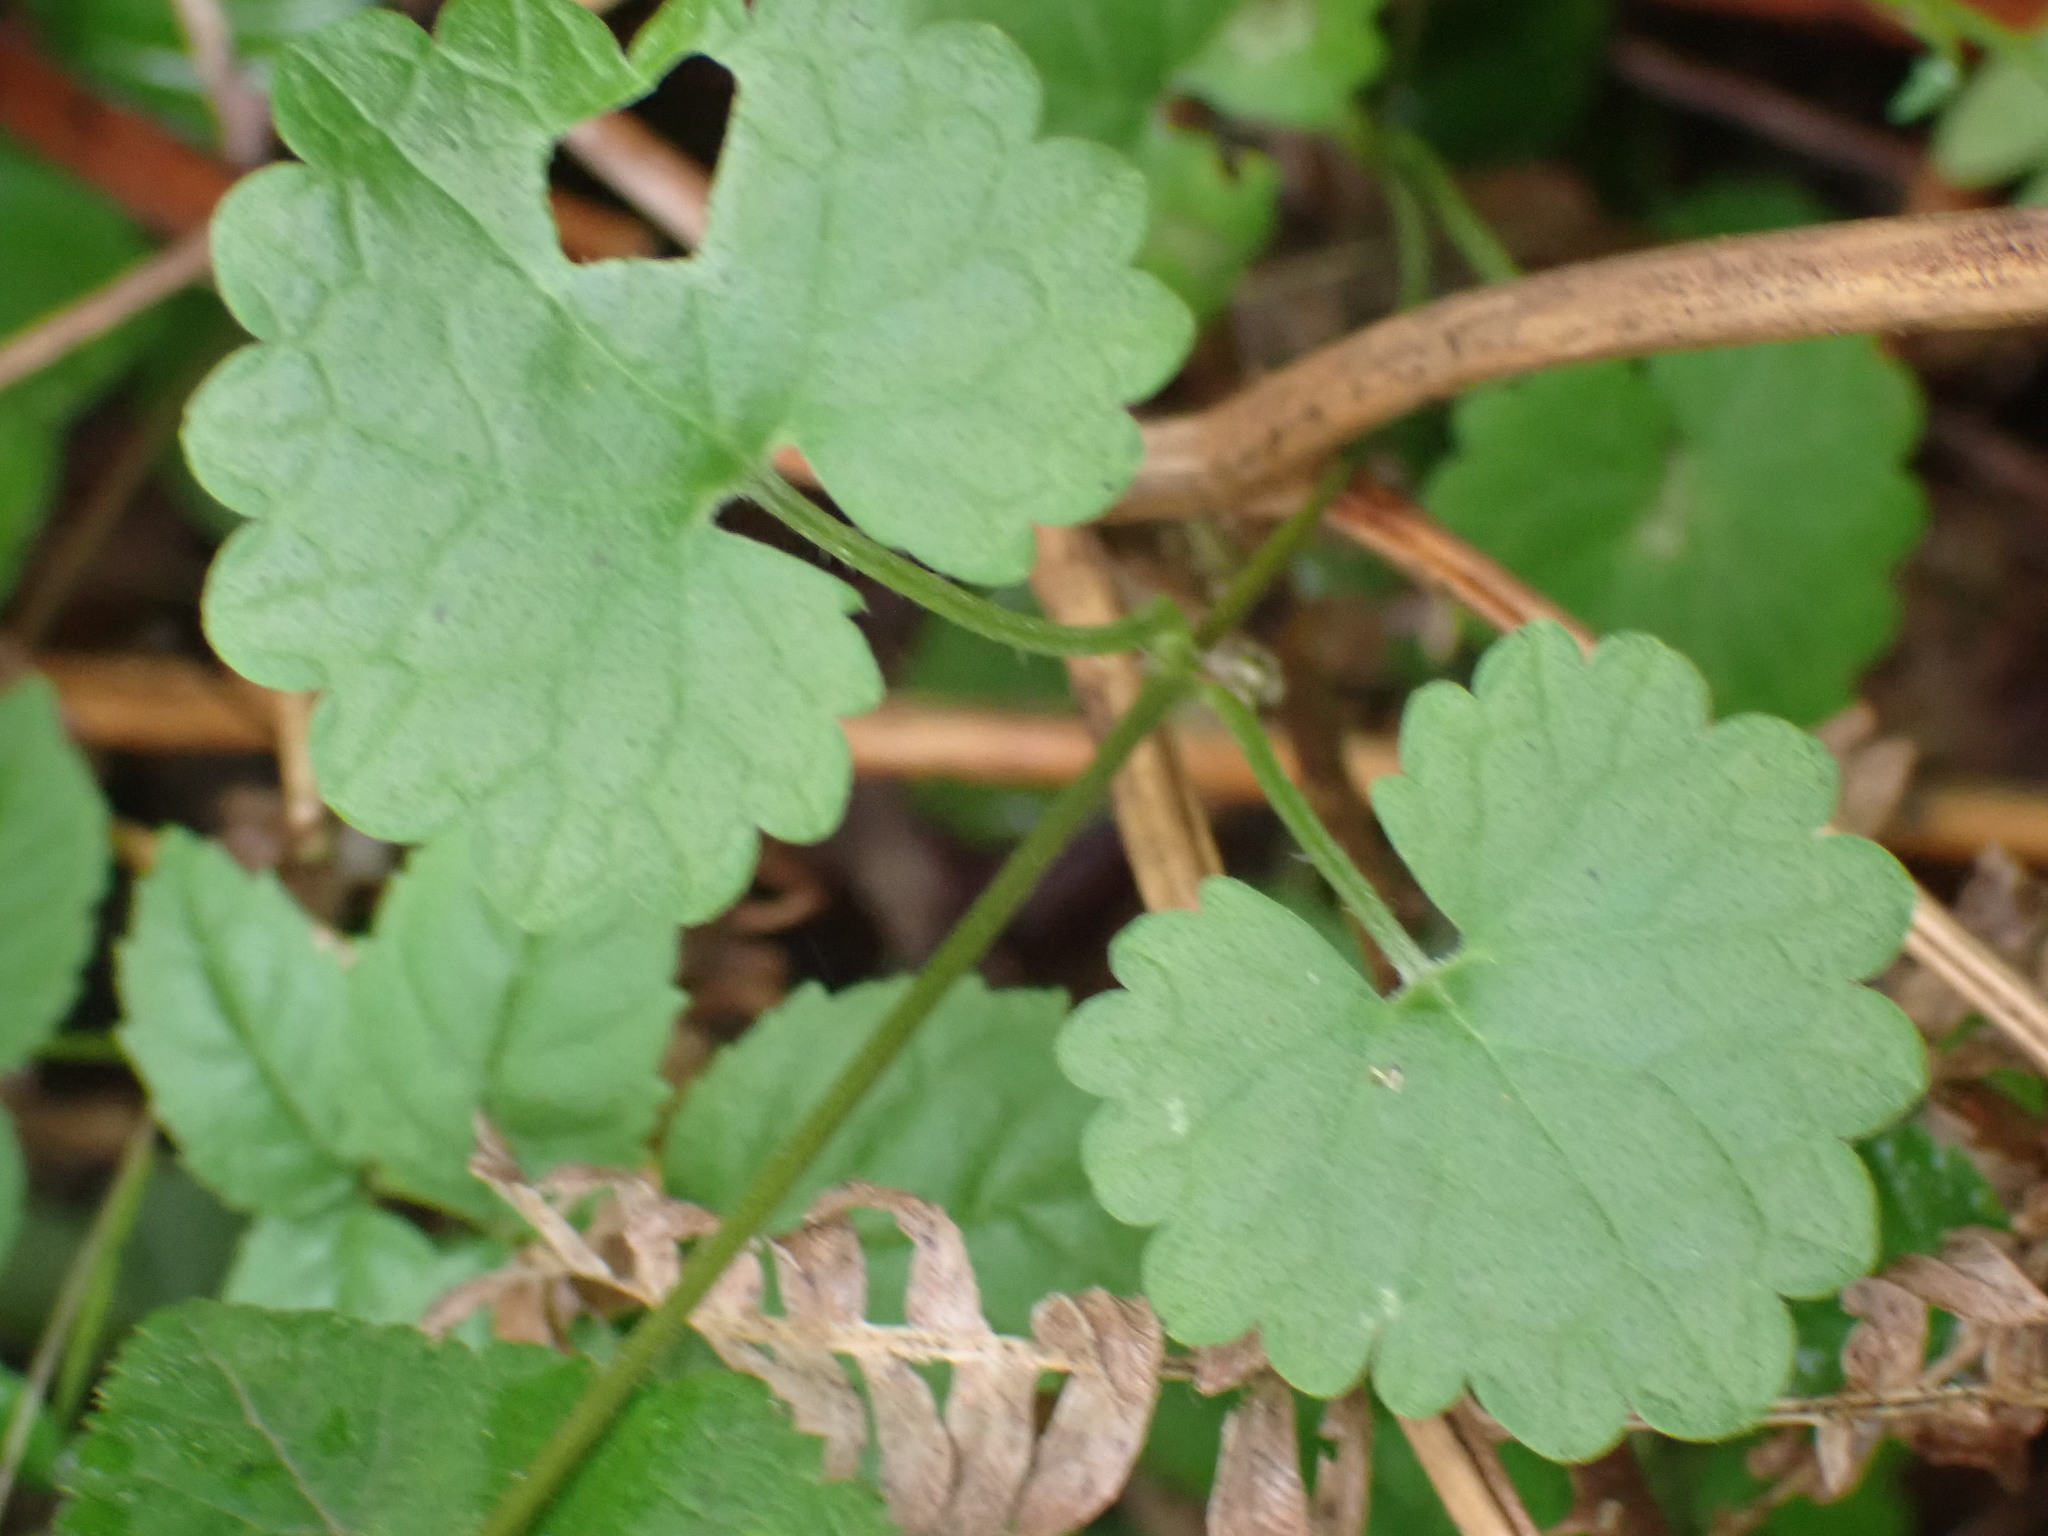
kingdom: Plantae
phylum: Tracheophyta
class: Magnoliopsida
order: Lamiales
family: Lamiaceae
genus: Glechoma
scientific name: Glechoma hederacea
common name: Ground ivy
